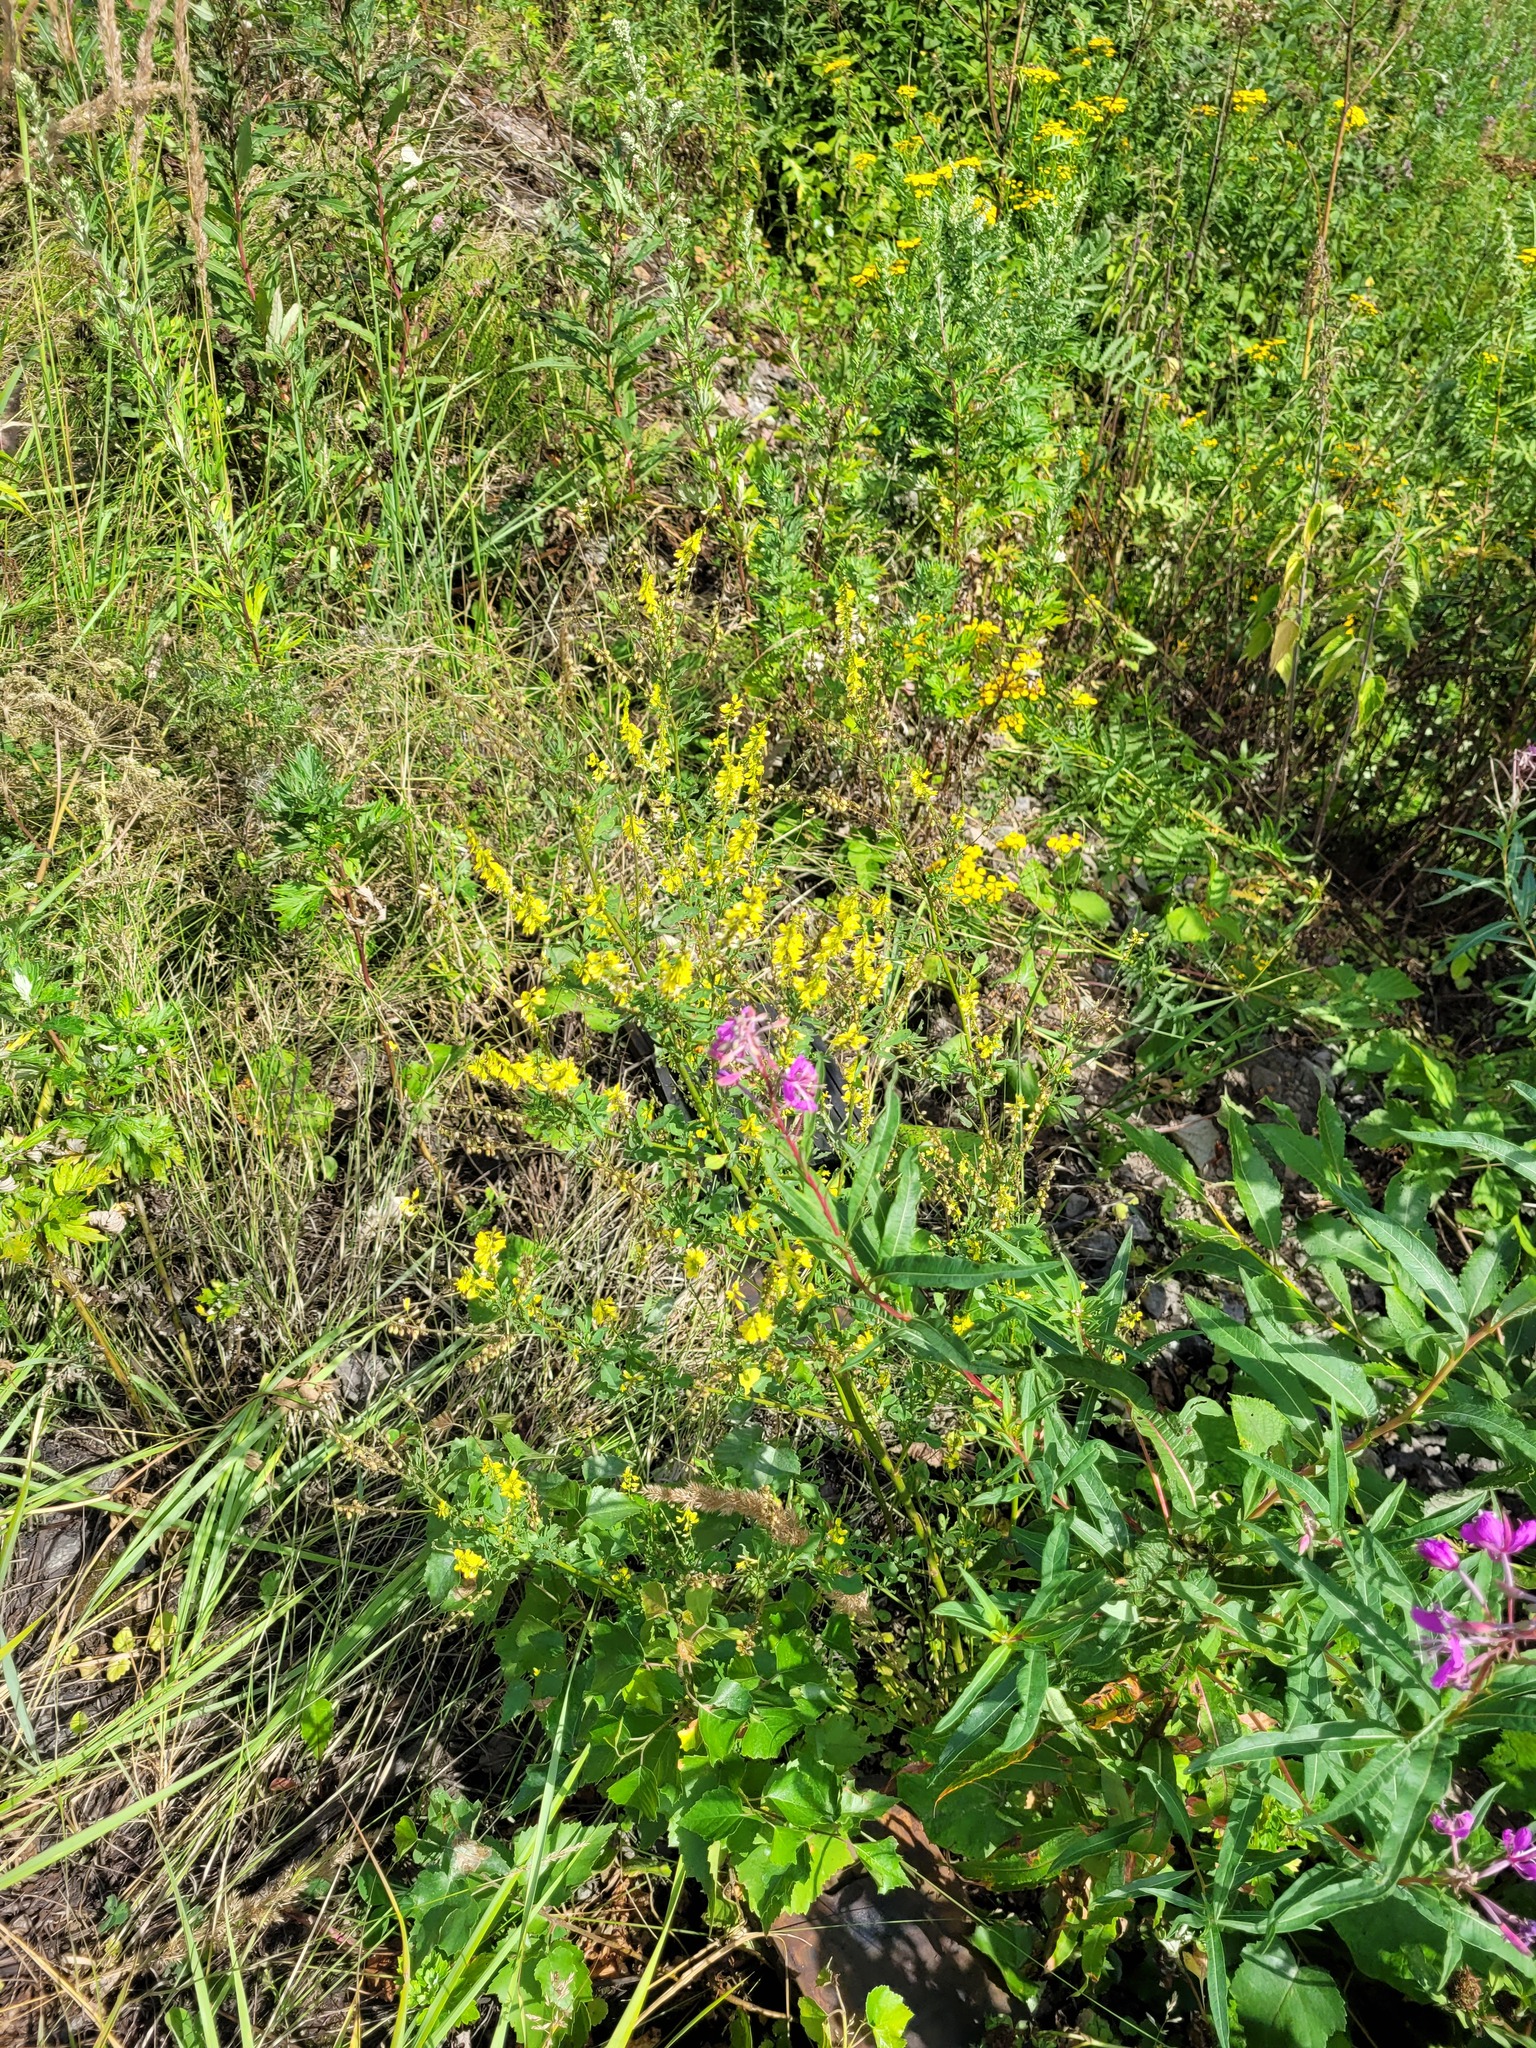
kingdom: Plantae
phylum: Tracheophyta
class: Magnoliopsida
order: Fabales
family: Fabaceae
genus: Melilotus
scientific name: Melilotus officinalis
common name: Sweetclover
